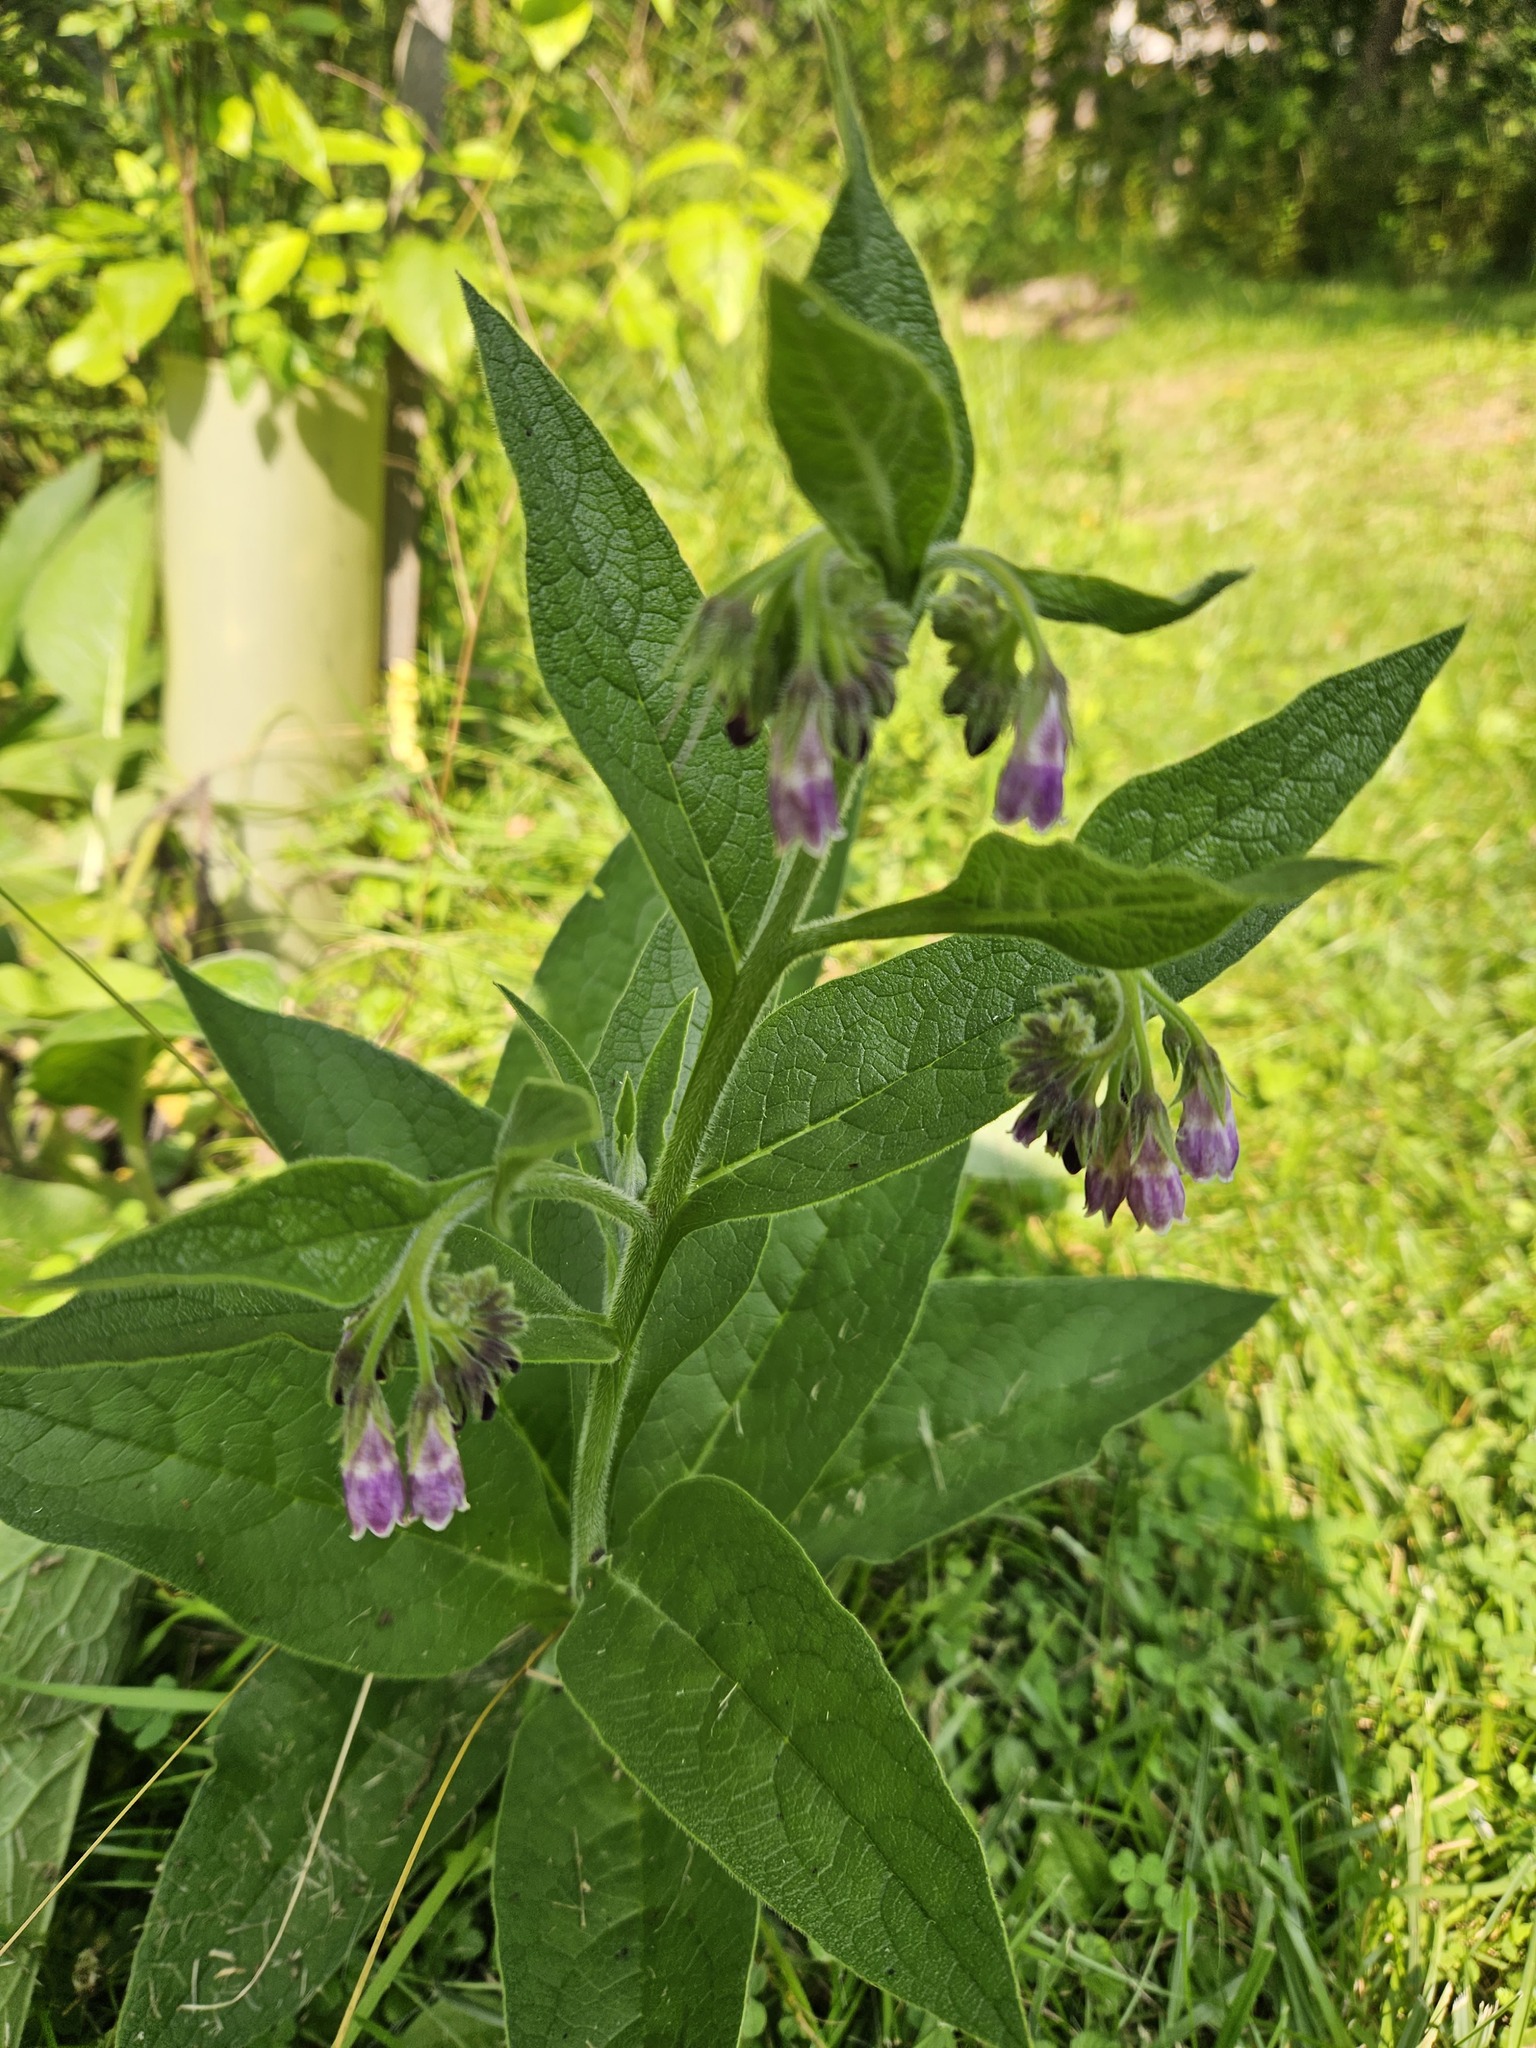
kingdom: Plantae
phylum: Tracheophyta
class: Magnoliopsida
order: Boraginales
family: Boraginaceae
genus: Symphytum
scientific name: Symphytum officinale
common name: Common comfrey
